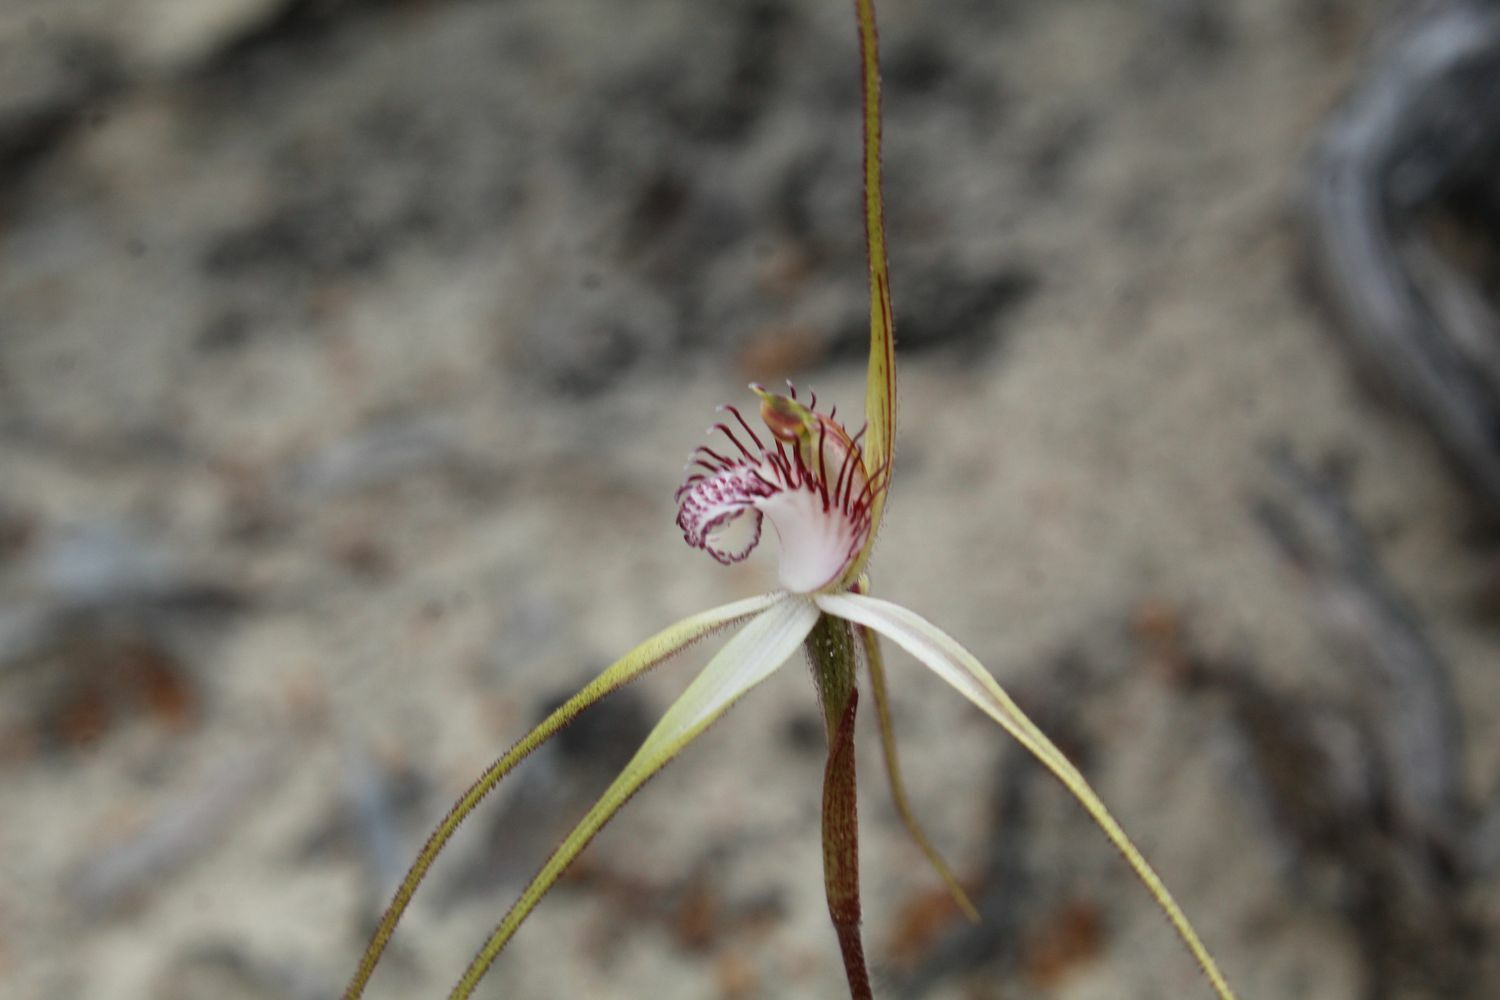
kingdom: Plantae
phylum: Tracheophyta
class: Liliopsida
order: Asparagales
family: Orchidaceae
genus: Caladenia
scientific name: Caladenia longicauda
